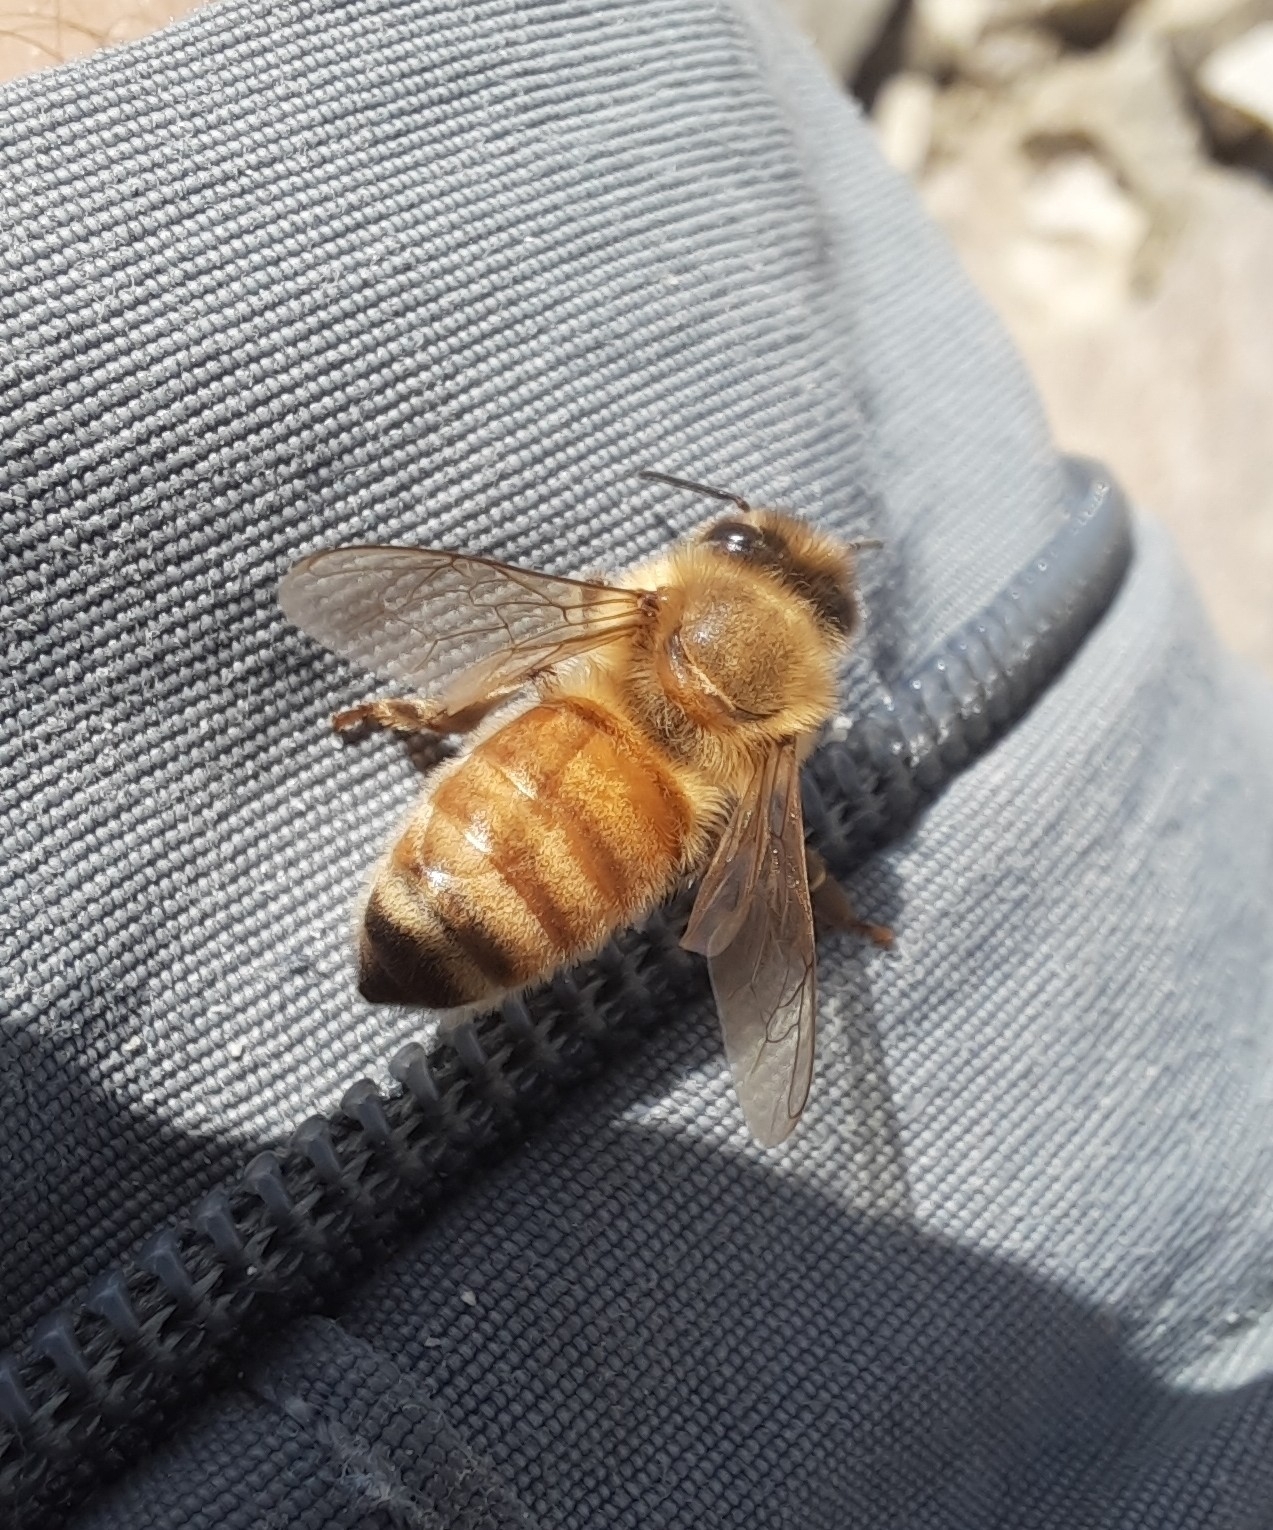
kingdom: Animalia
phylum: Arthropoda
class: Insecta
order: Hymenoptera
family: Apidae
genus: Apis
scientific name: Apis mellifera
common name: Honey bee
